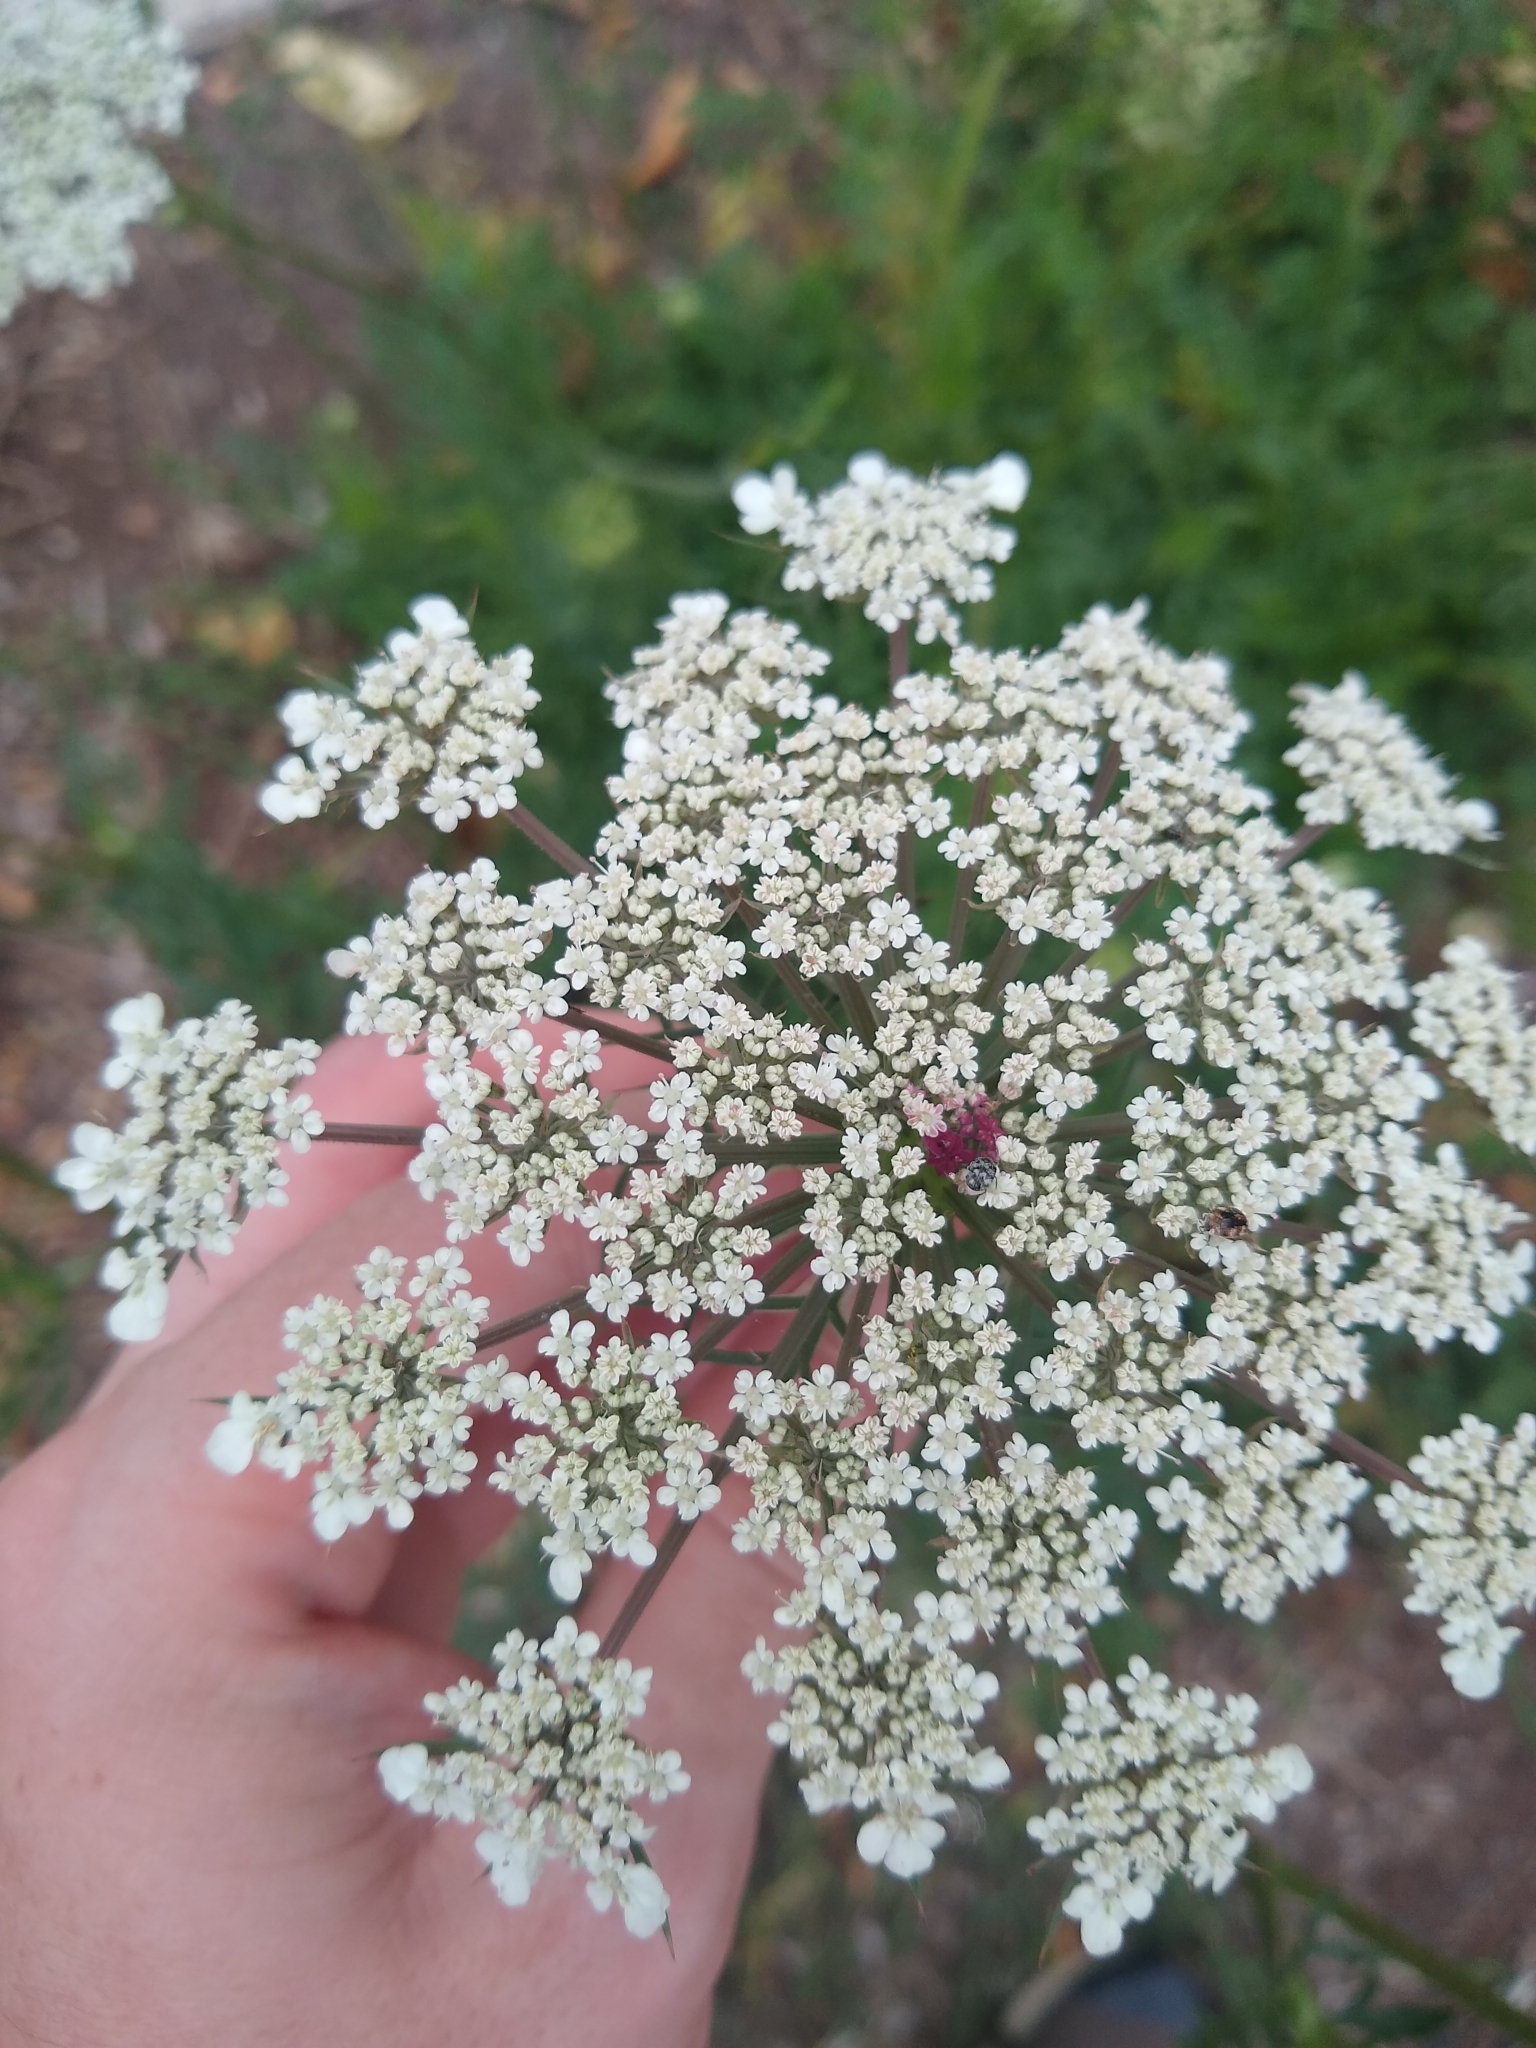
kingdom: Plantae
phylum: Tracheophyta
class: Magnoliopsida
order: Apiales
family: Apiaceae
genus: Daucus
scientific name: Daucus carota
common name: Wild carrot
